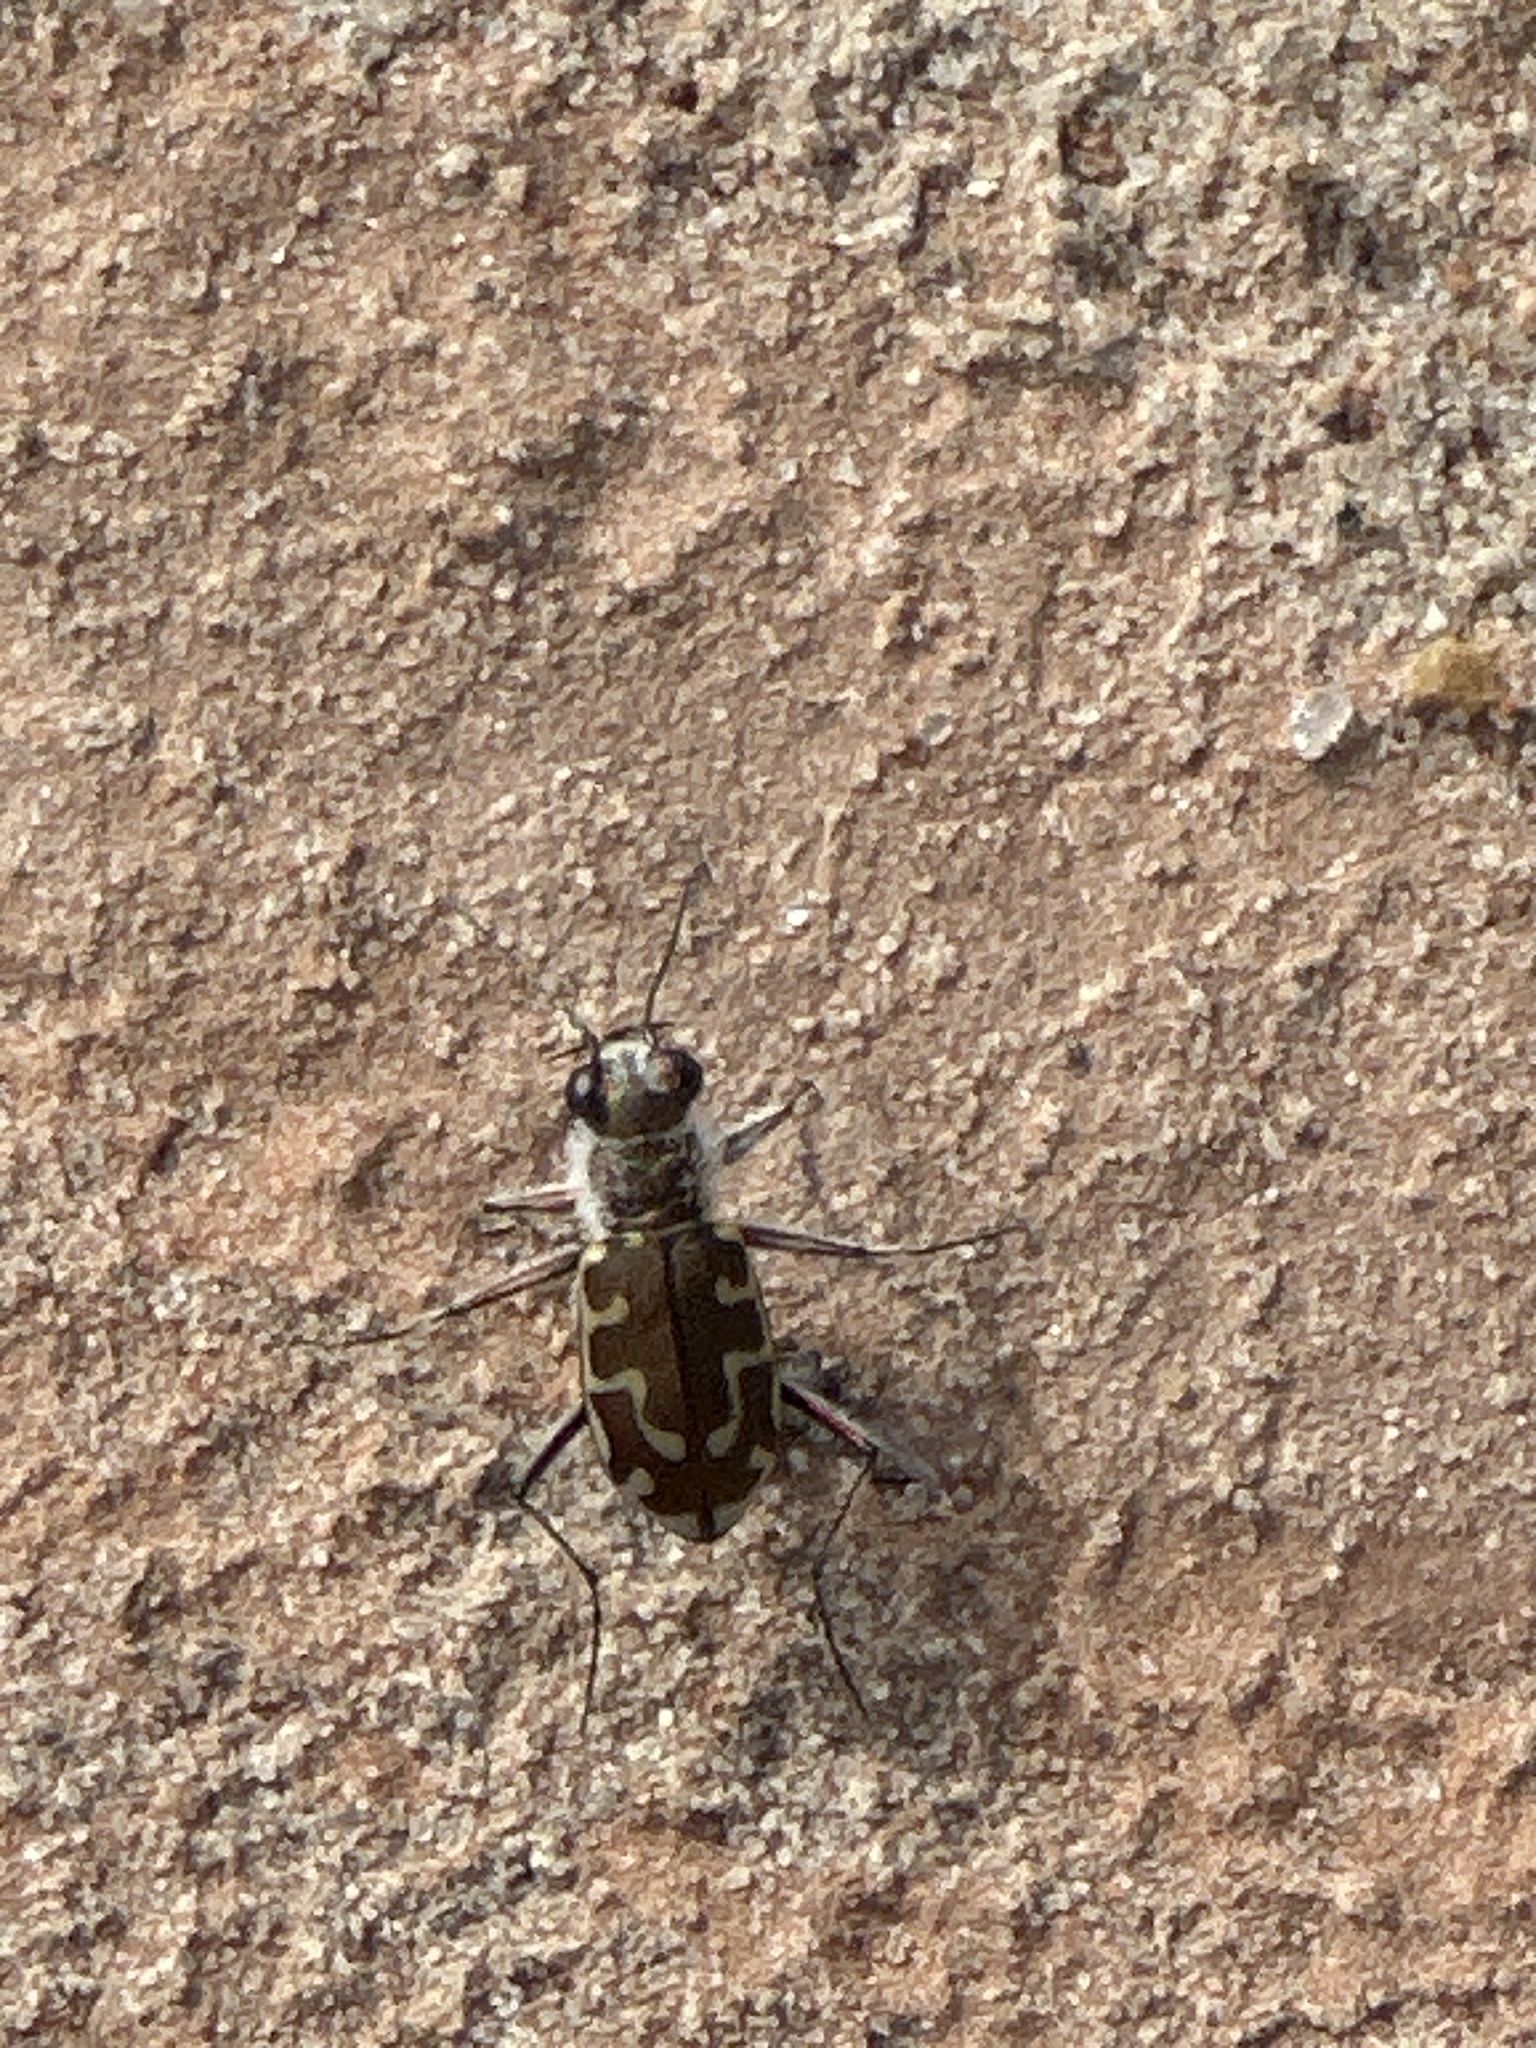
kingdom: Animalia
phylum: Arthropoda
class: Insecta
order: Coleoptera
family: Carabidae
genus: Cicindela
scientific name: Cicindela hirticollis
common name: Hairy-necked tiger beetle
